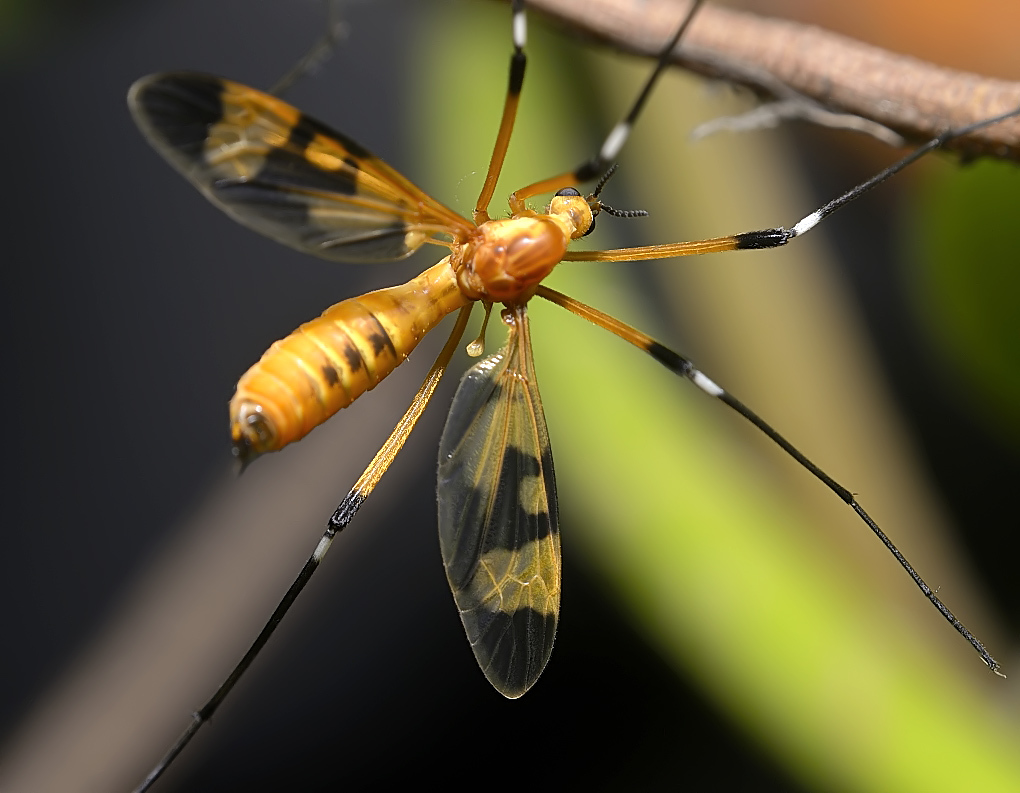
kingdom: Animalia
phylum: Arthropoda
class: Insecta
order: Diptera
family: Tipulidae
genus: Pselliophora
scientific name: Pselliophora laeta
